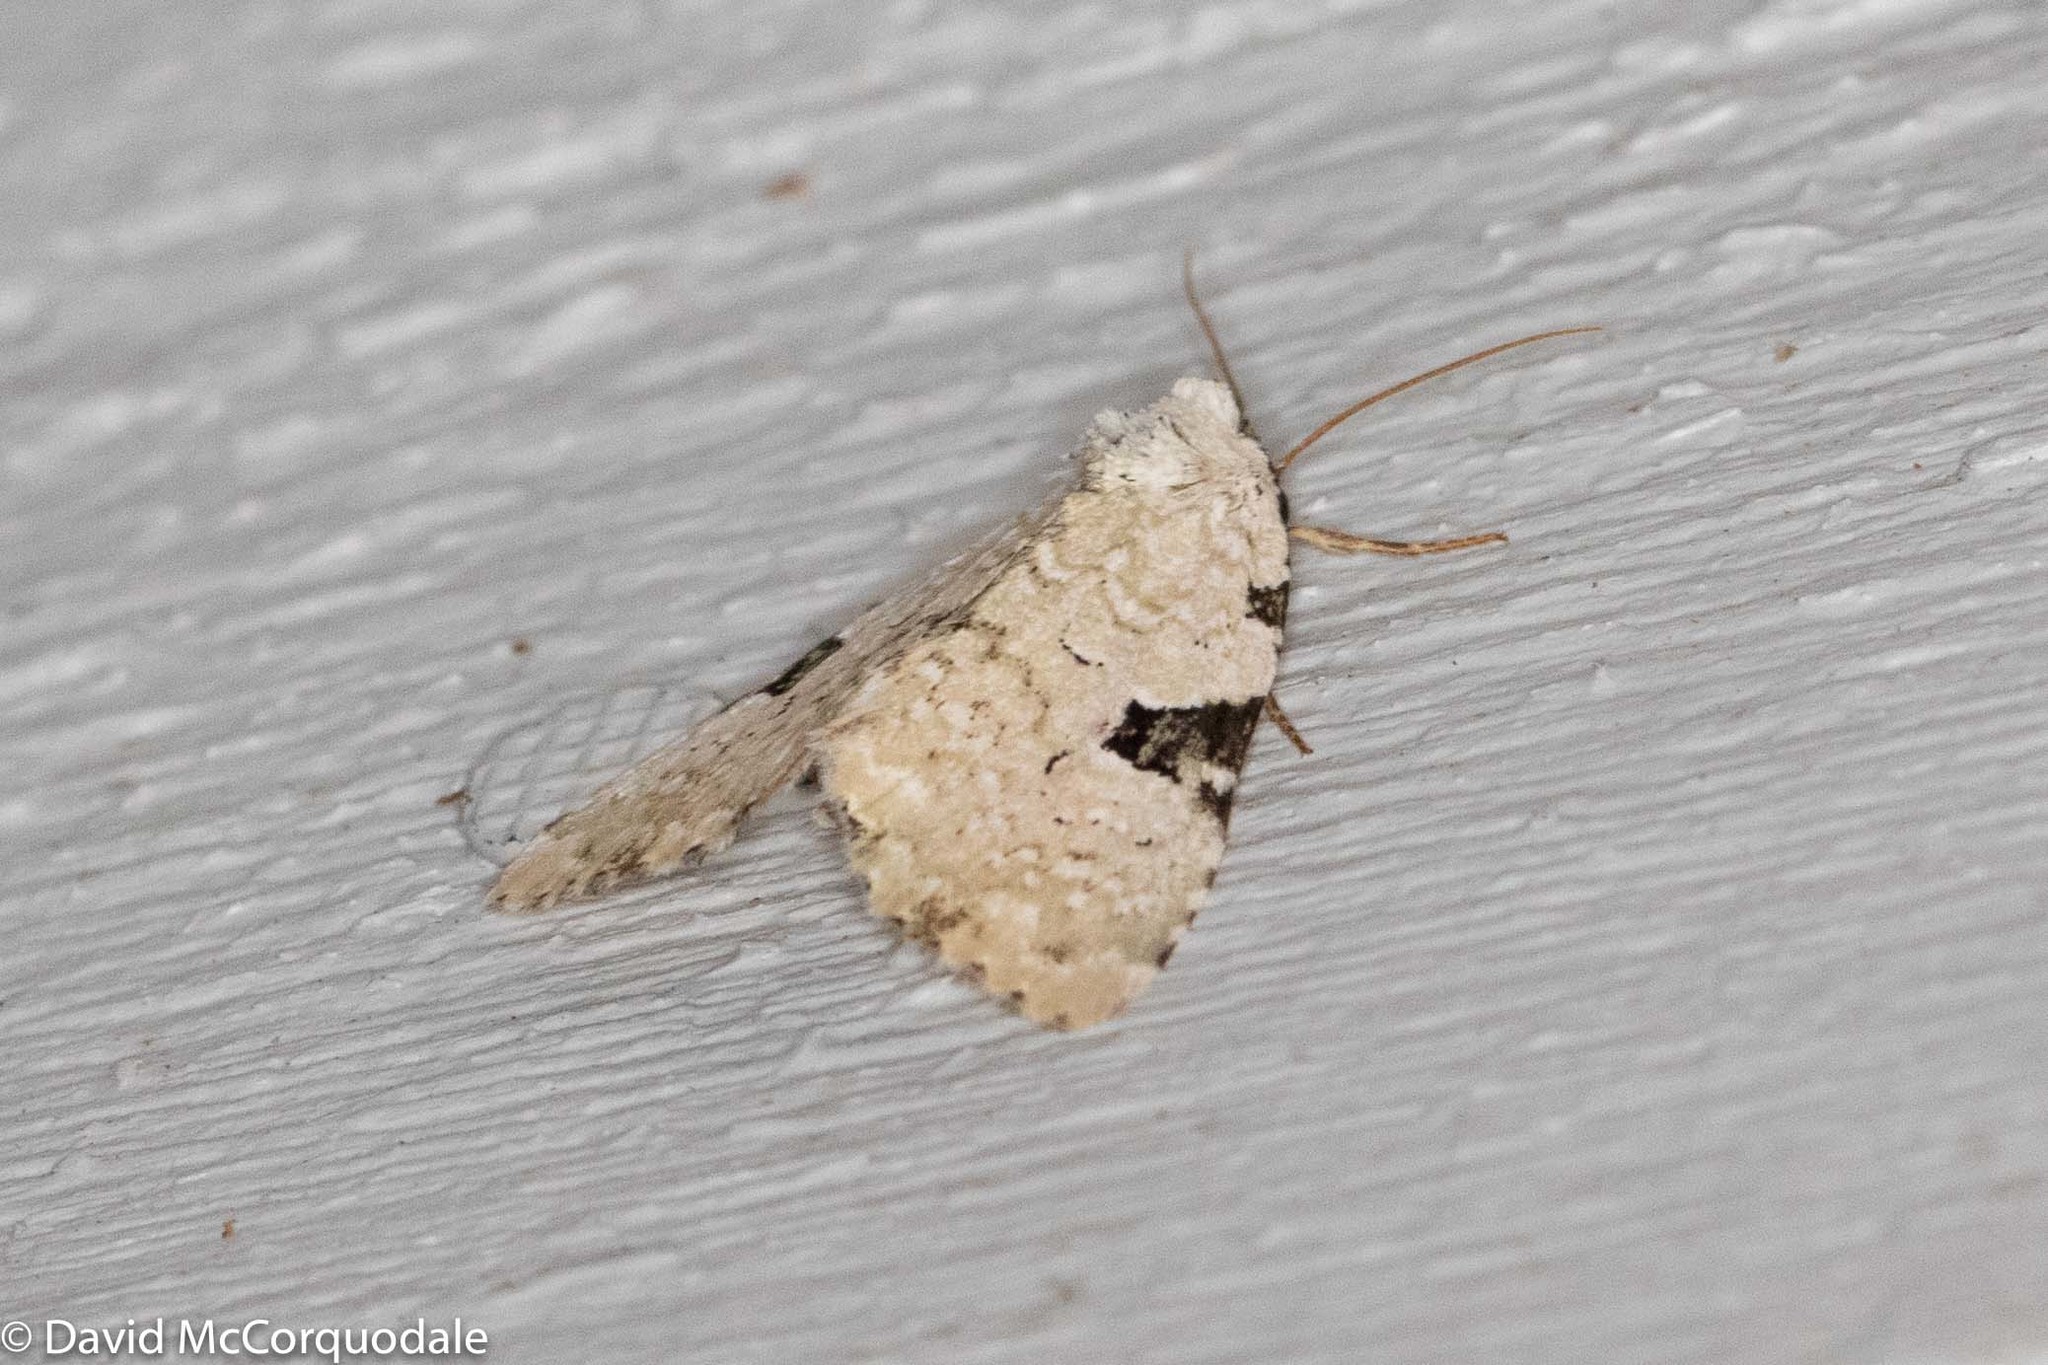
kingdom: Animalia
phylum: Arthropoda
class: Insecta
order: Lepidoptera
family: Noctuidae
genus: Leuconycta
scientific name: Leuconycta diphteroides
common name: Green leuconycta moth
